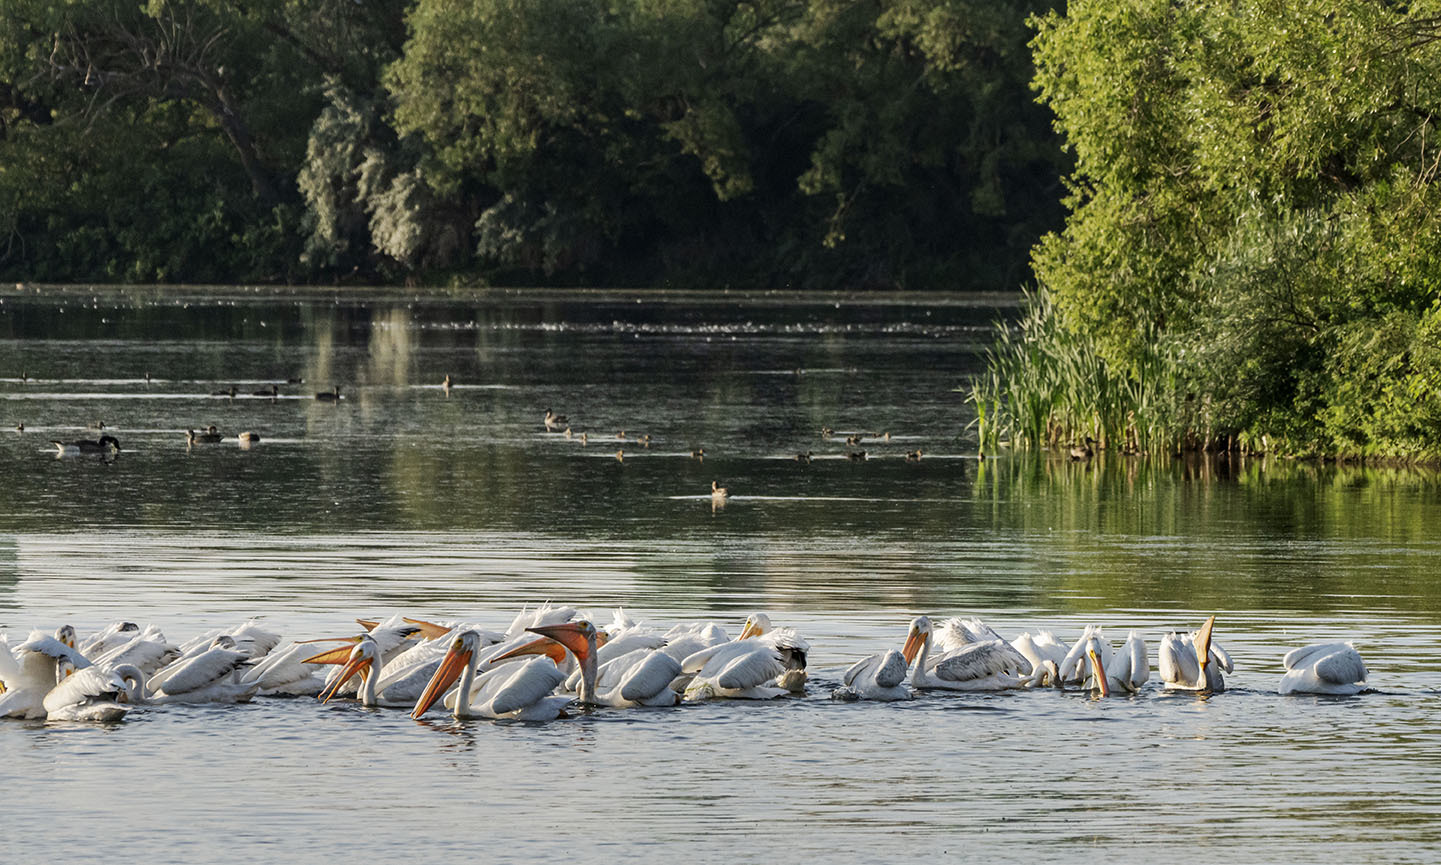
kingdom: Animalia
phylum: Chordata
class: Aves
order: Pelecaniformes
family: Pelecanidae
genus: Pelecanus
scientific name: Pelecanus erythrorhynchos
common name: American white pelican
